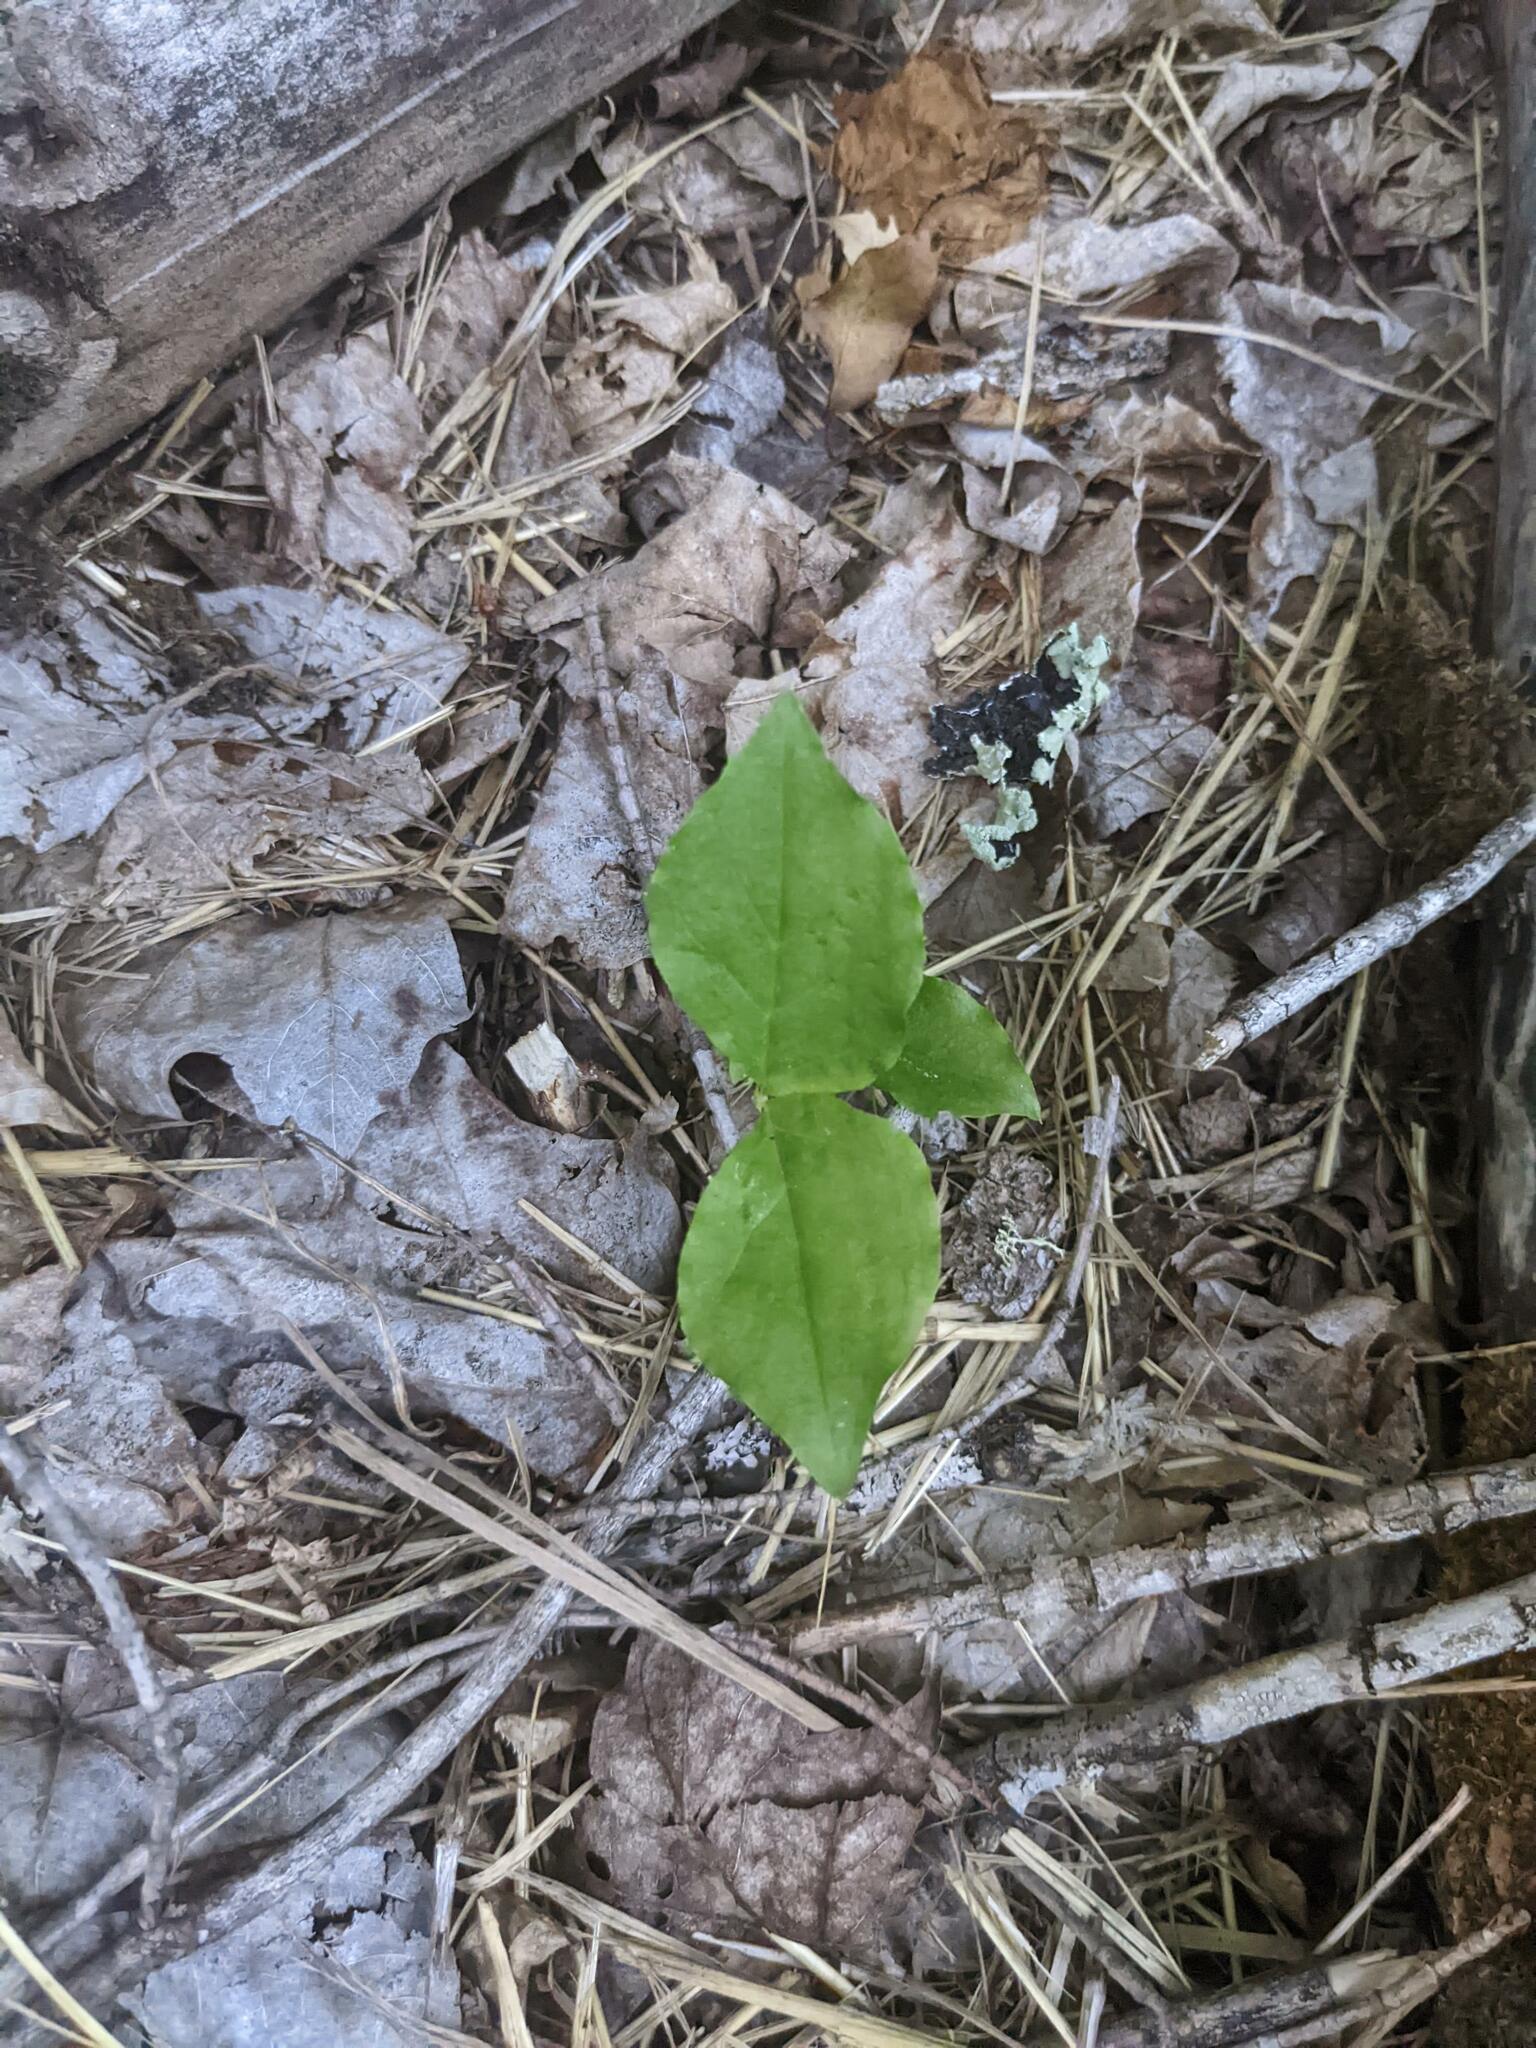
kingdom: Plantae
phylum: Tracheophyta
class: Liliopsida
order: Alismatales
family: Araceae
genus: Arisaema
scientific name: Arisaema triphyllum
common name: Jack-in-the-pulpit
